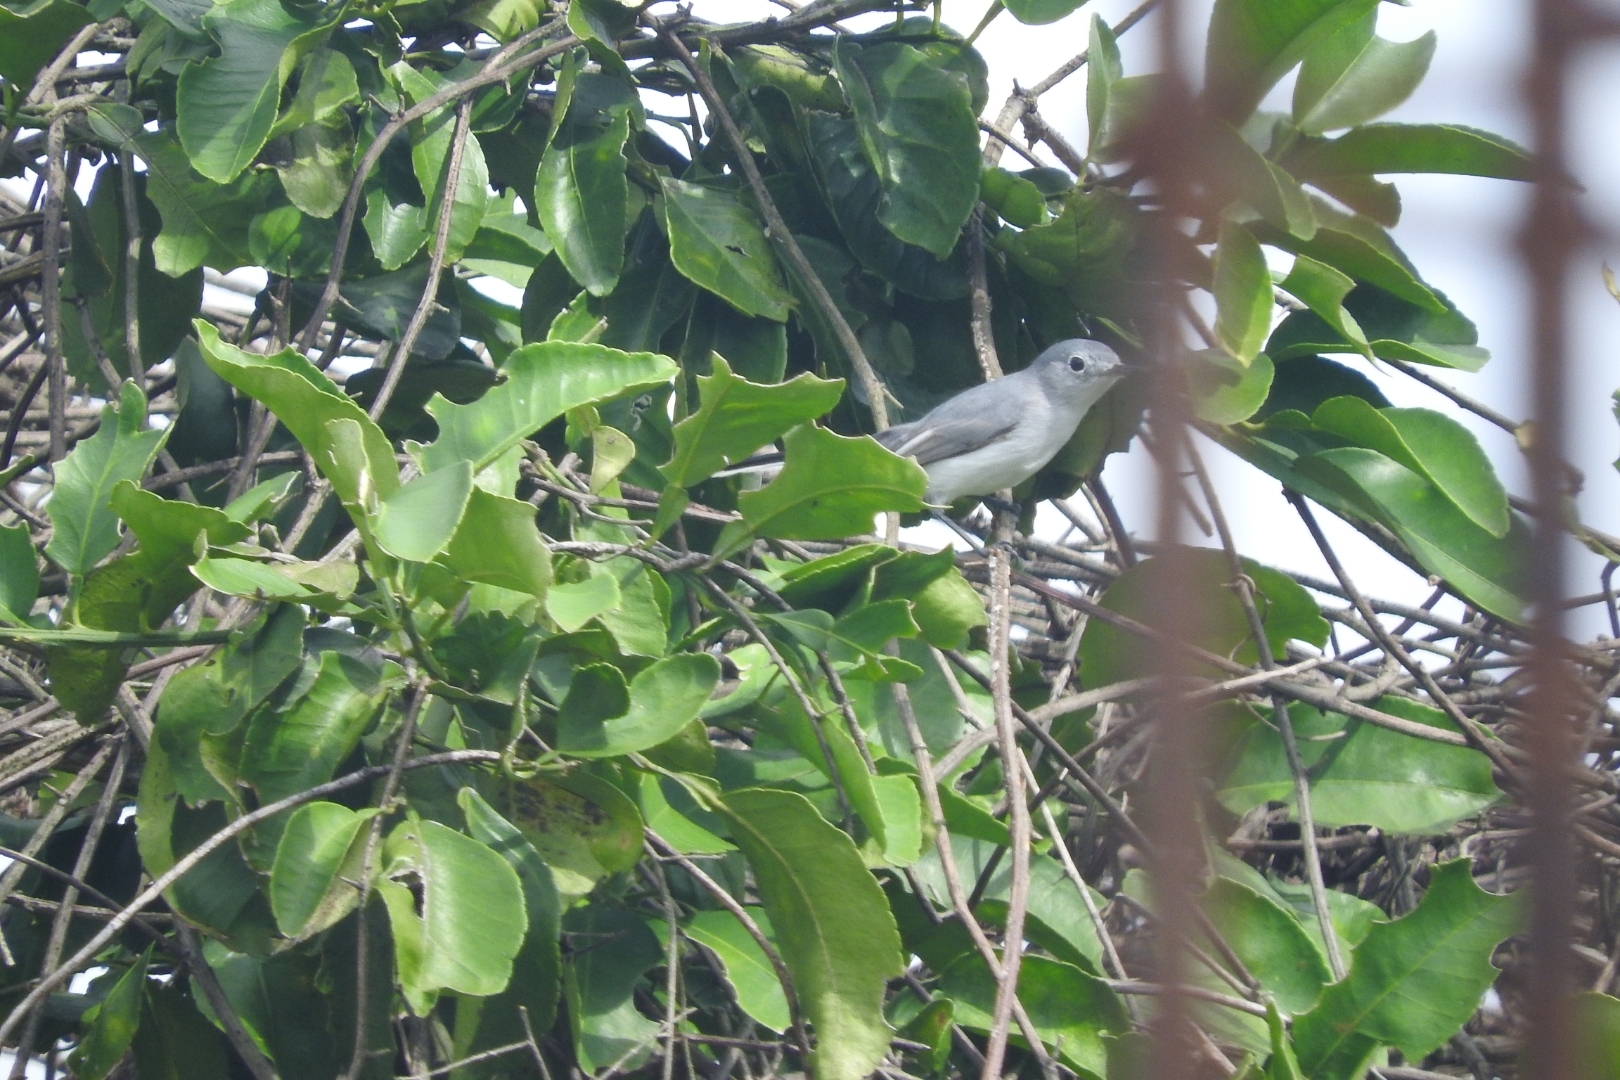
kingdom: Animalia
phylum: Chordata
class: Aves
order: Passeriformes
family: Polioptilidae
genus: Polioptila
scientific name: Polioptila caerulea
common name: Blue-gray gnatcatcher
